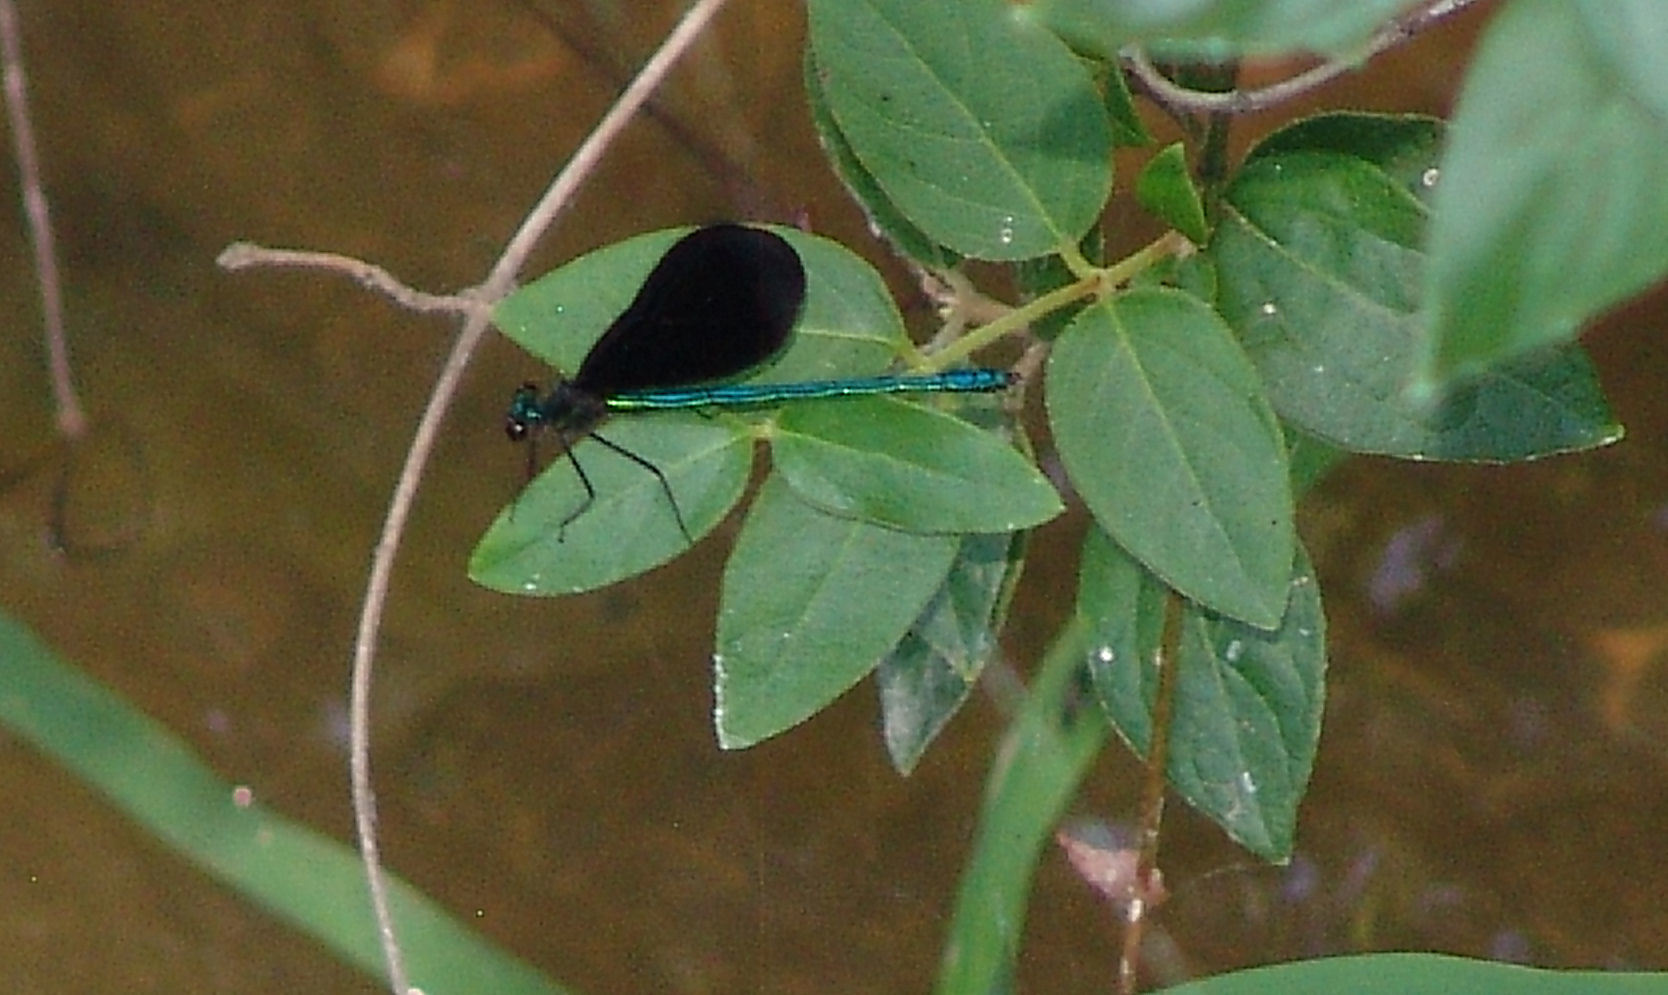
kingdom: Animalia
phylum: Arthropoda
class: Insecta
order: Odonata
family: Calopterygidae
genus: Calopteryx
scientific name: Calopteryx maculata
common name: Ebony jewelwing
